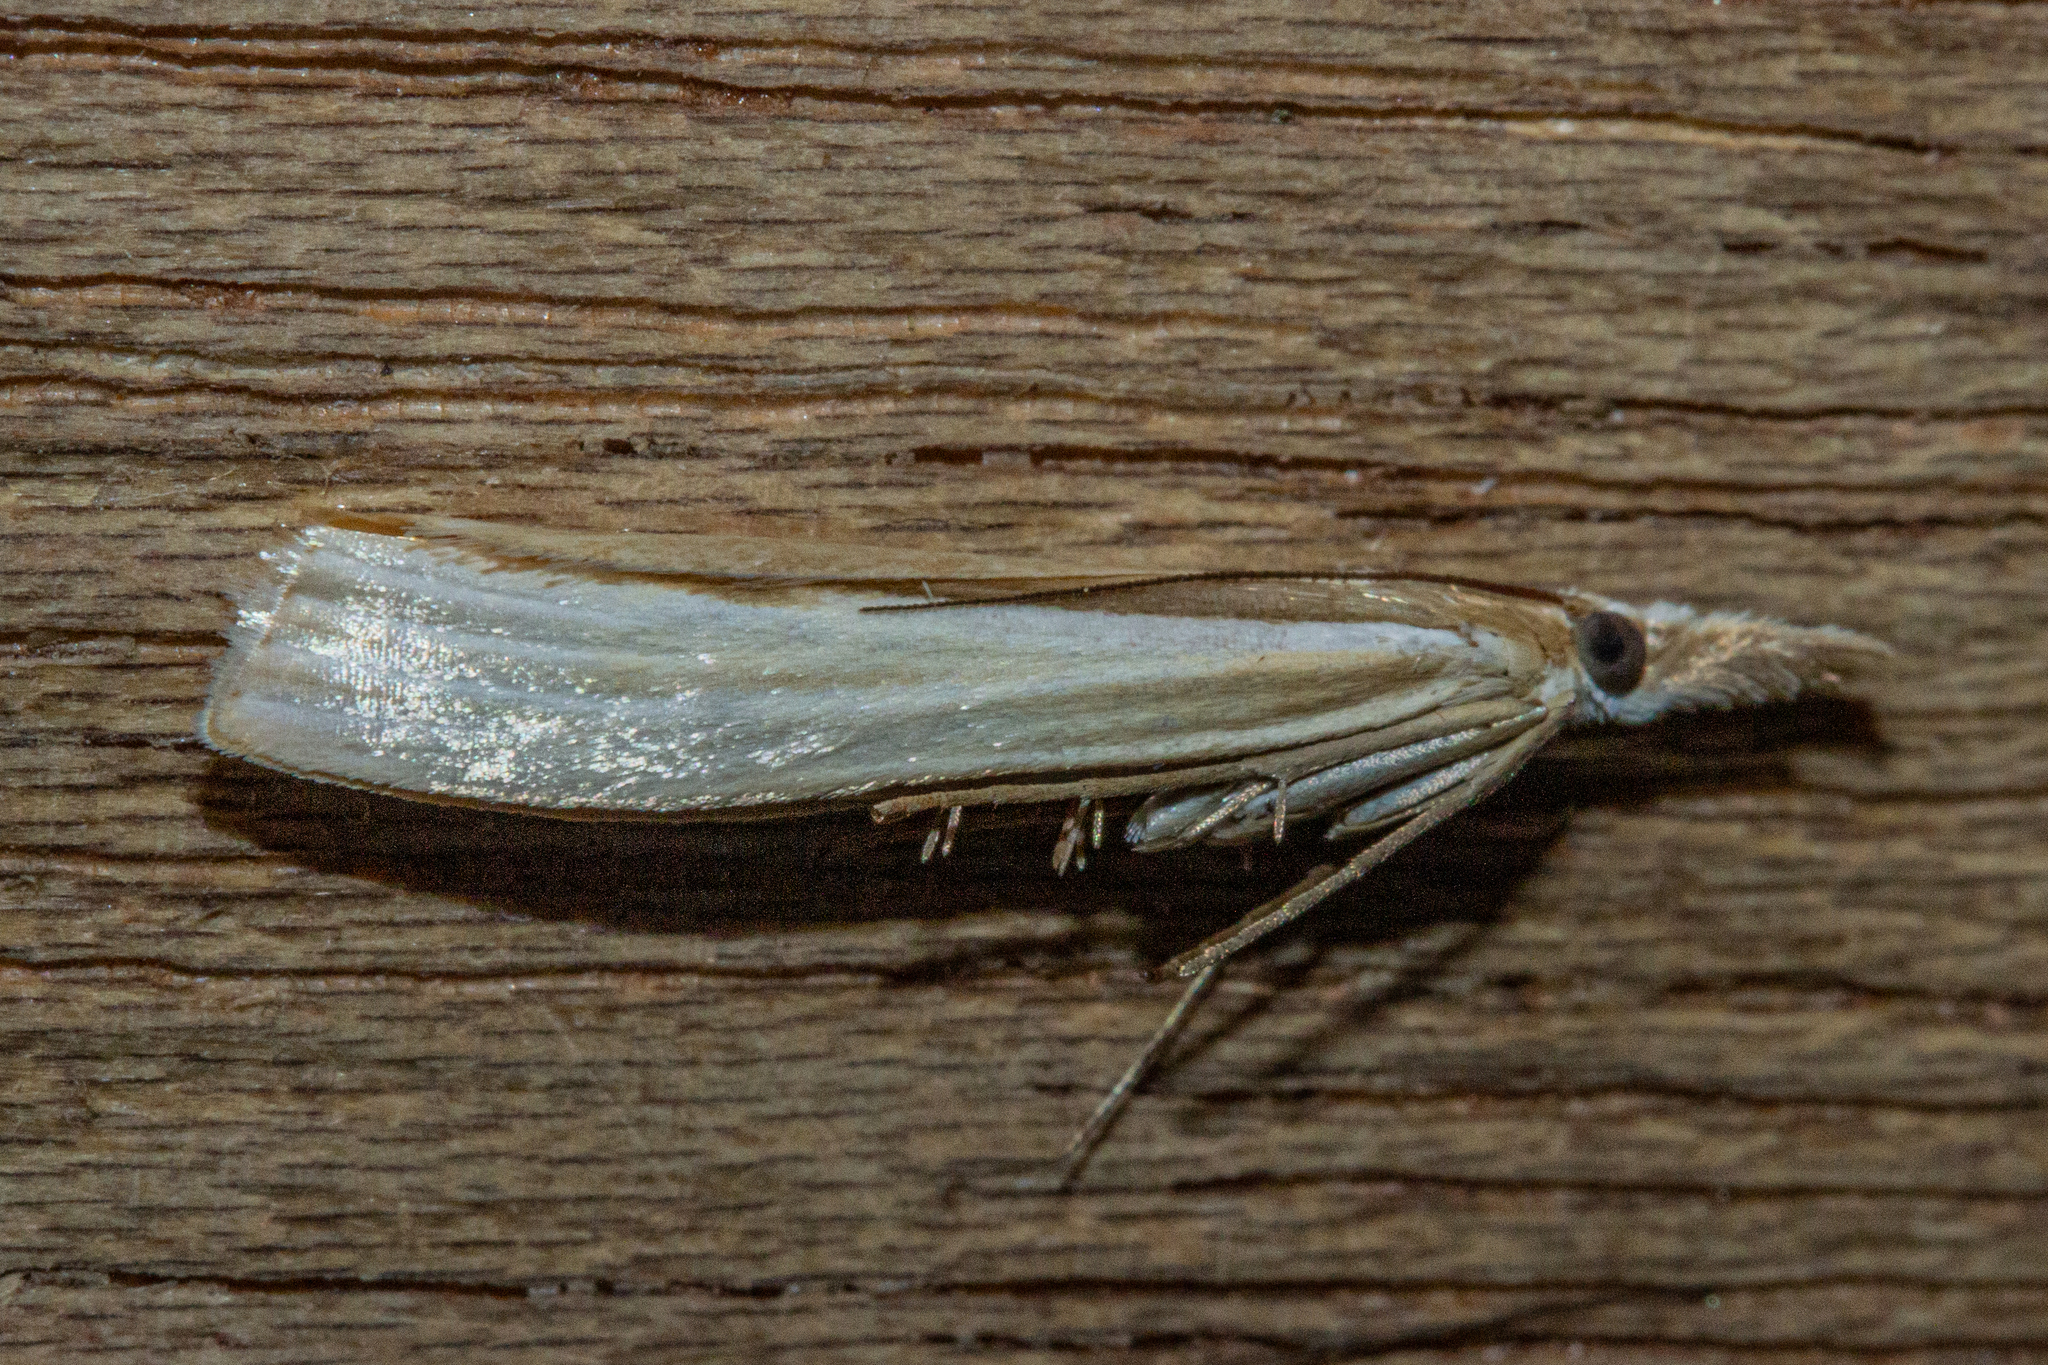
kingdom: Animalia
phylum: Arthropoda
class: Insecta
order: Lepidoptera
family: Crambidae
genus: Orocrambus
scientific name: Orocrambus ramosellus
